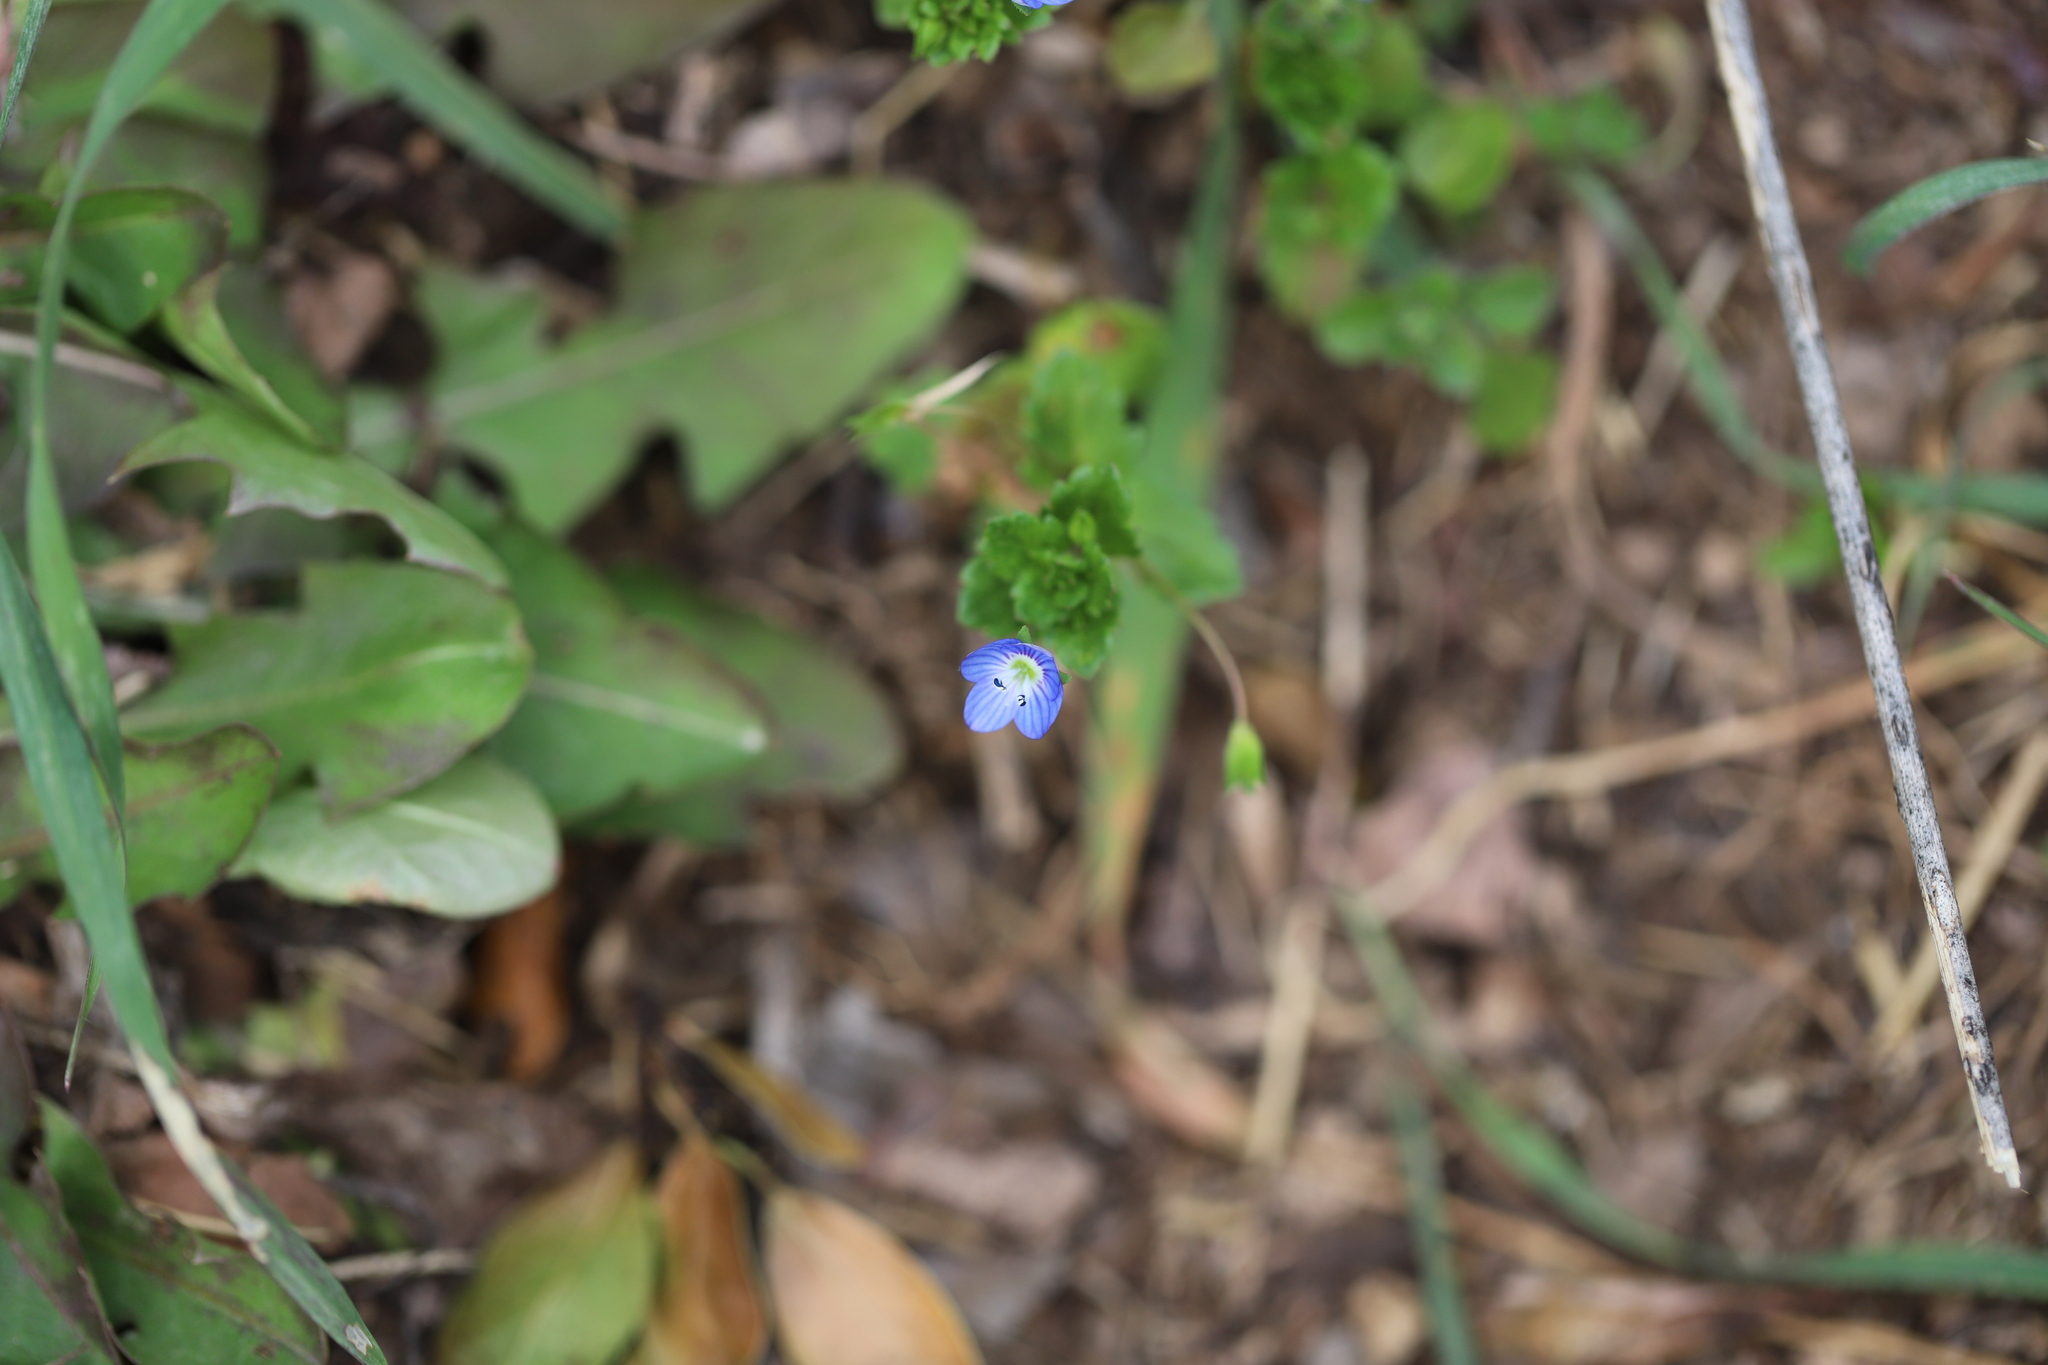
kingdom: Plantae
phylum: Tracheophyta
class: Magnoliopsida
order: Lamiales
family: Plantaginaceae
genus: Veronica
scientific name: Veronica persica
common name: Common field-speedwell
